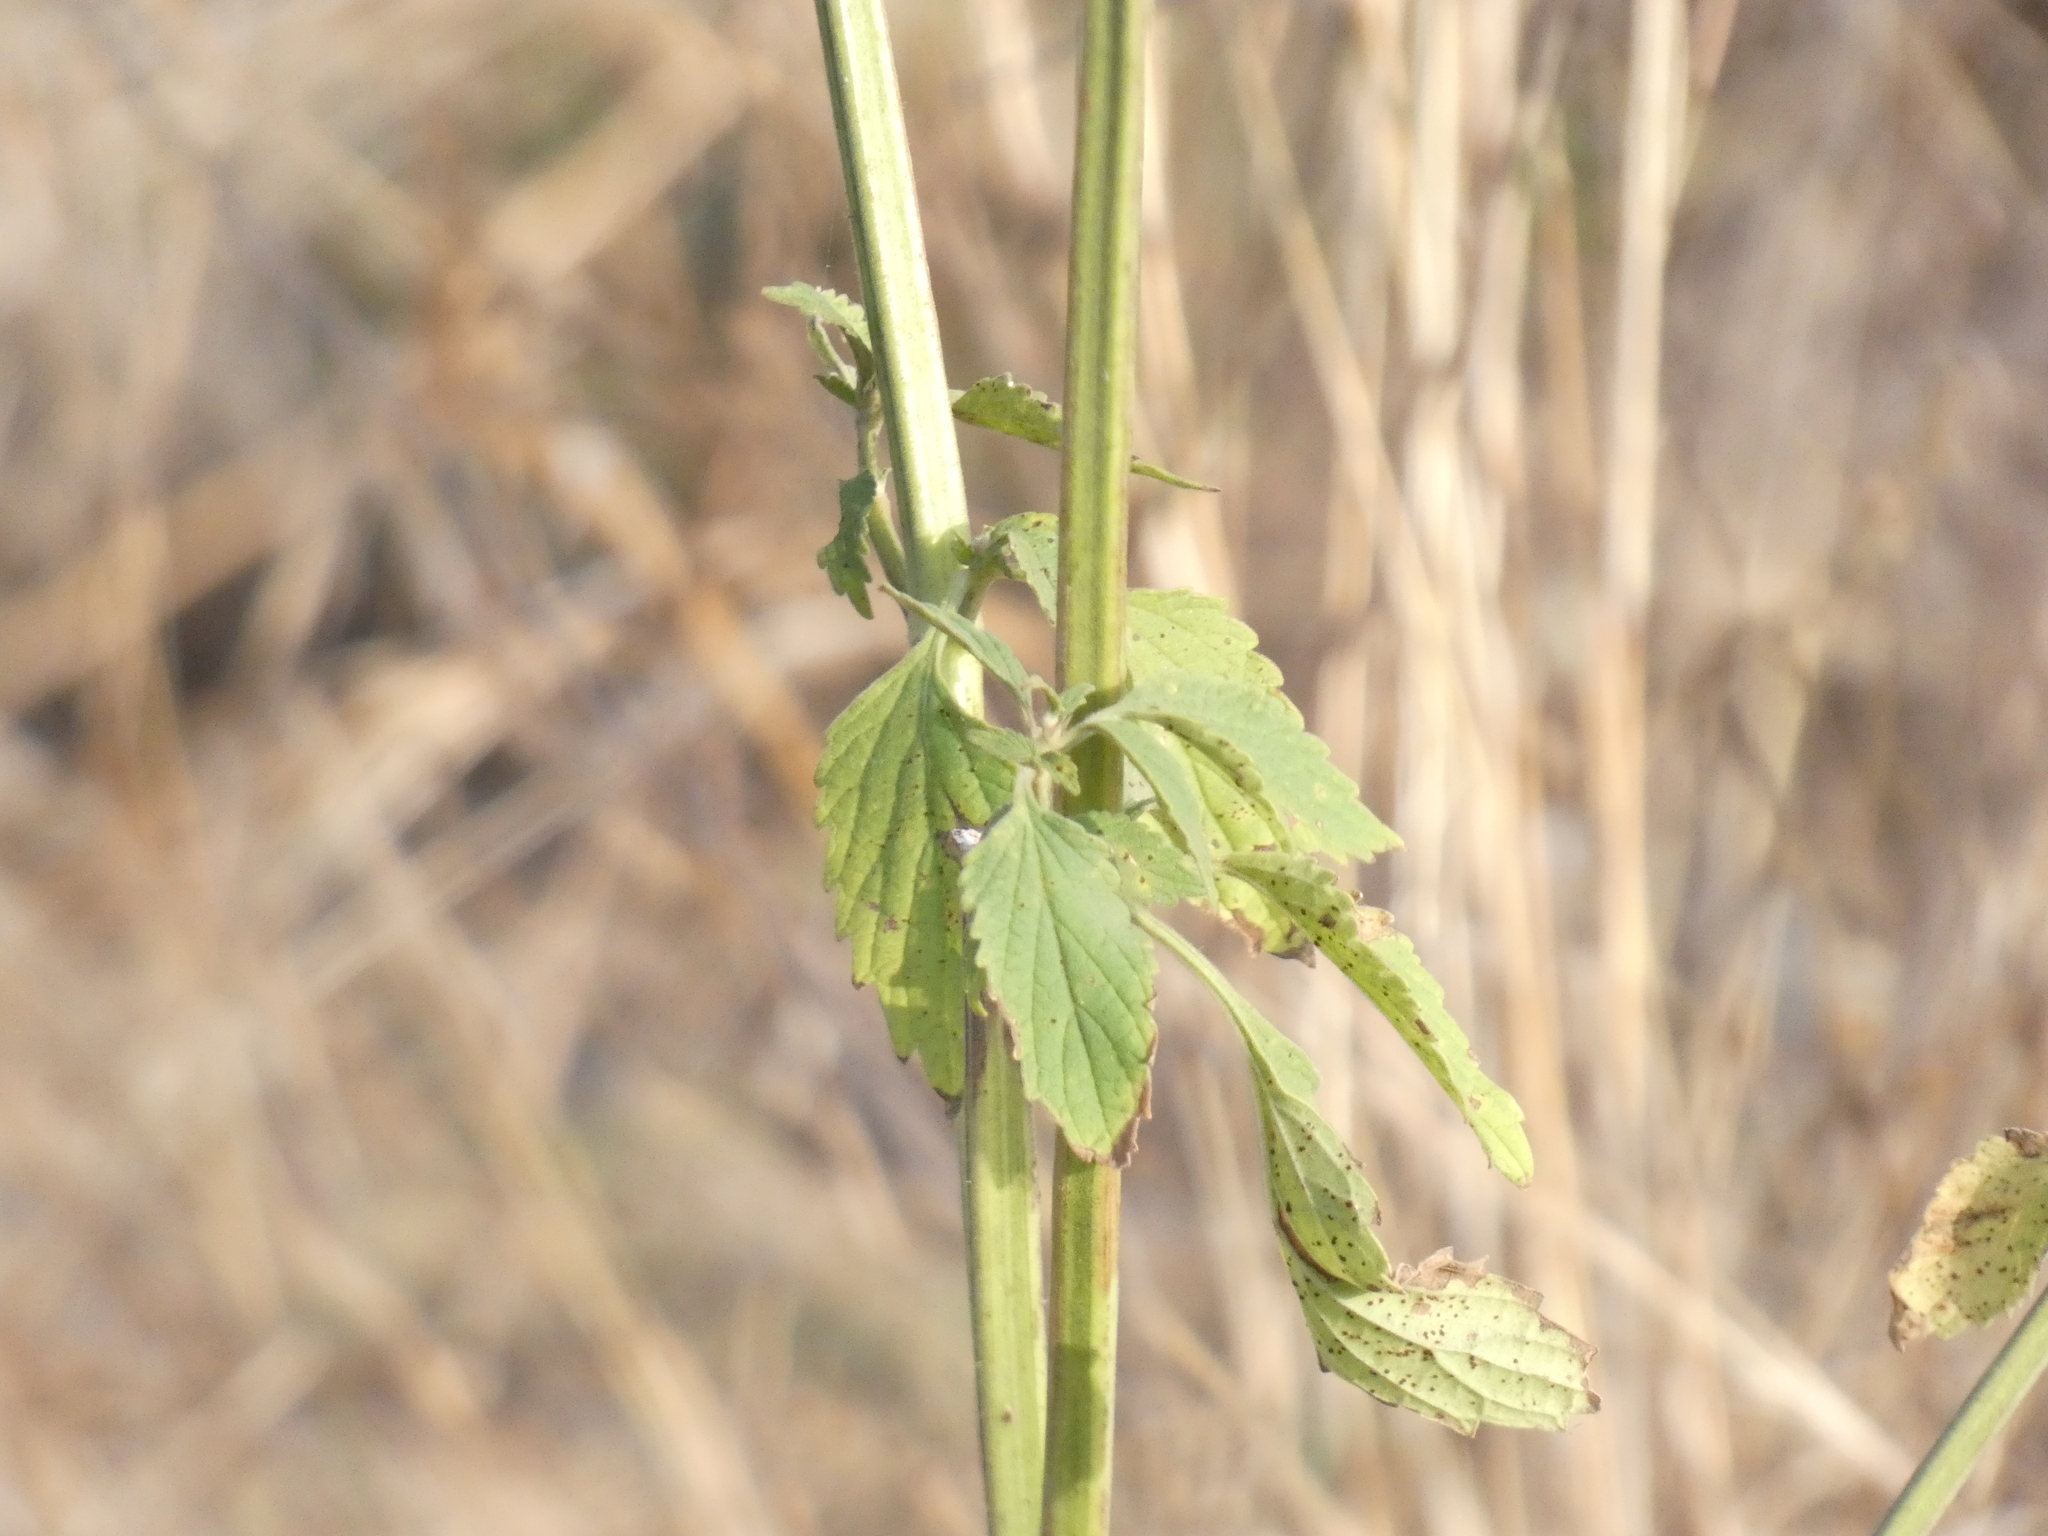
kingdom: Plantae
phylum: Tracheophyta
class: Magnoliopsida
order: Lamiales
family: Lamiaceae
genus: Leonotis
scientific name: Leonotis nepetifolia
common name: Christmas candlestick
